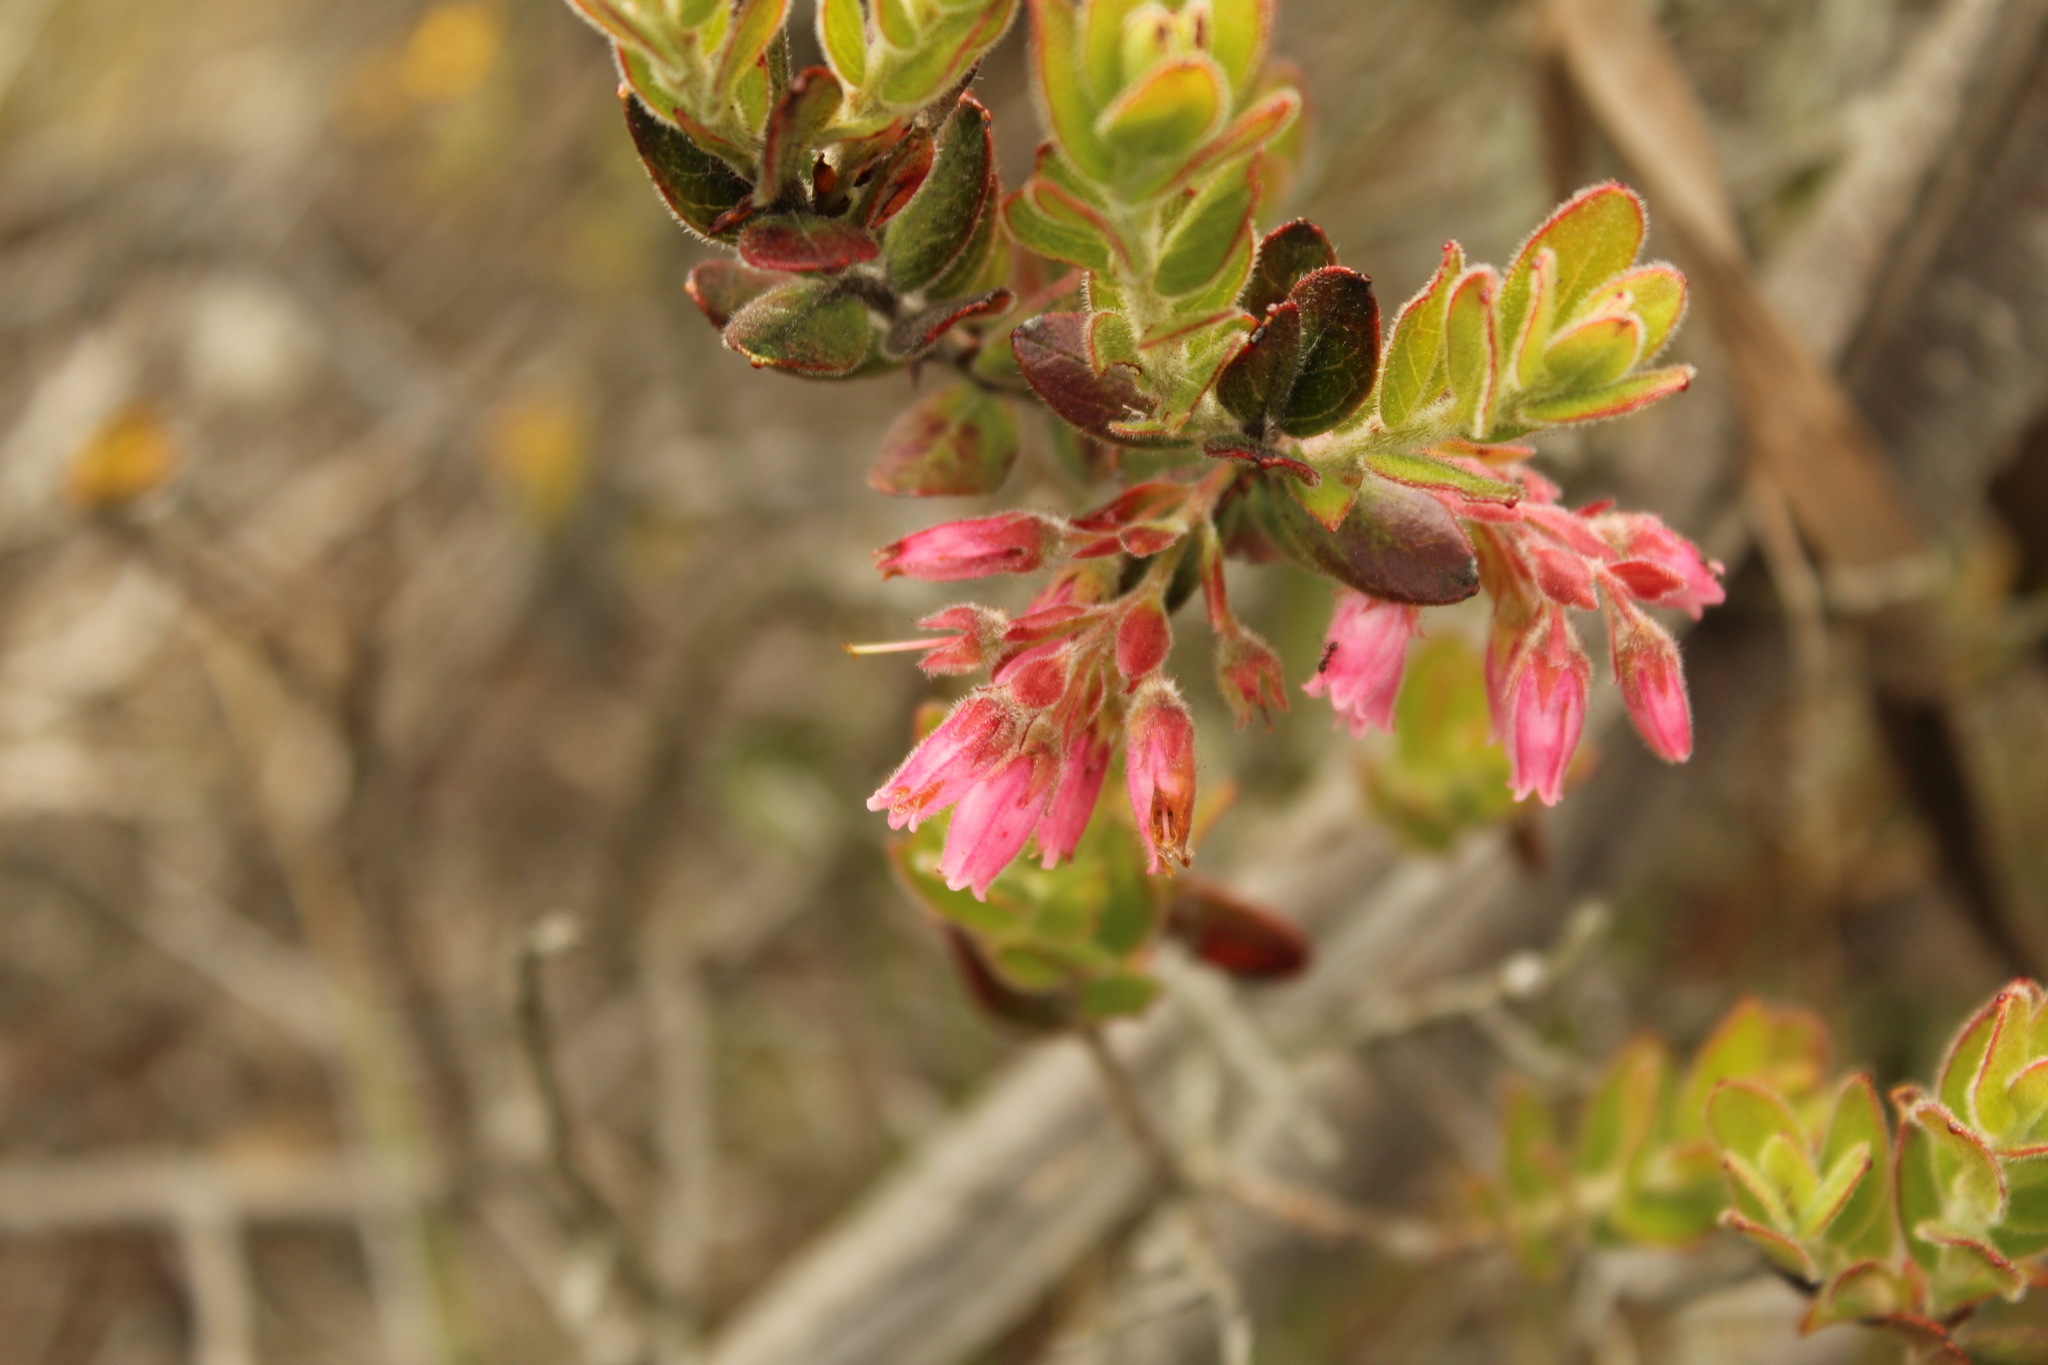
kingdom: Plantae
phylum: Tracheophyta
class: Magnoliopsida
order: Ericales
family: Ericaceae
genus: Gaylussacia
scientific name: Gaylussacia buxifolia
